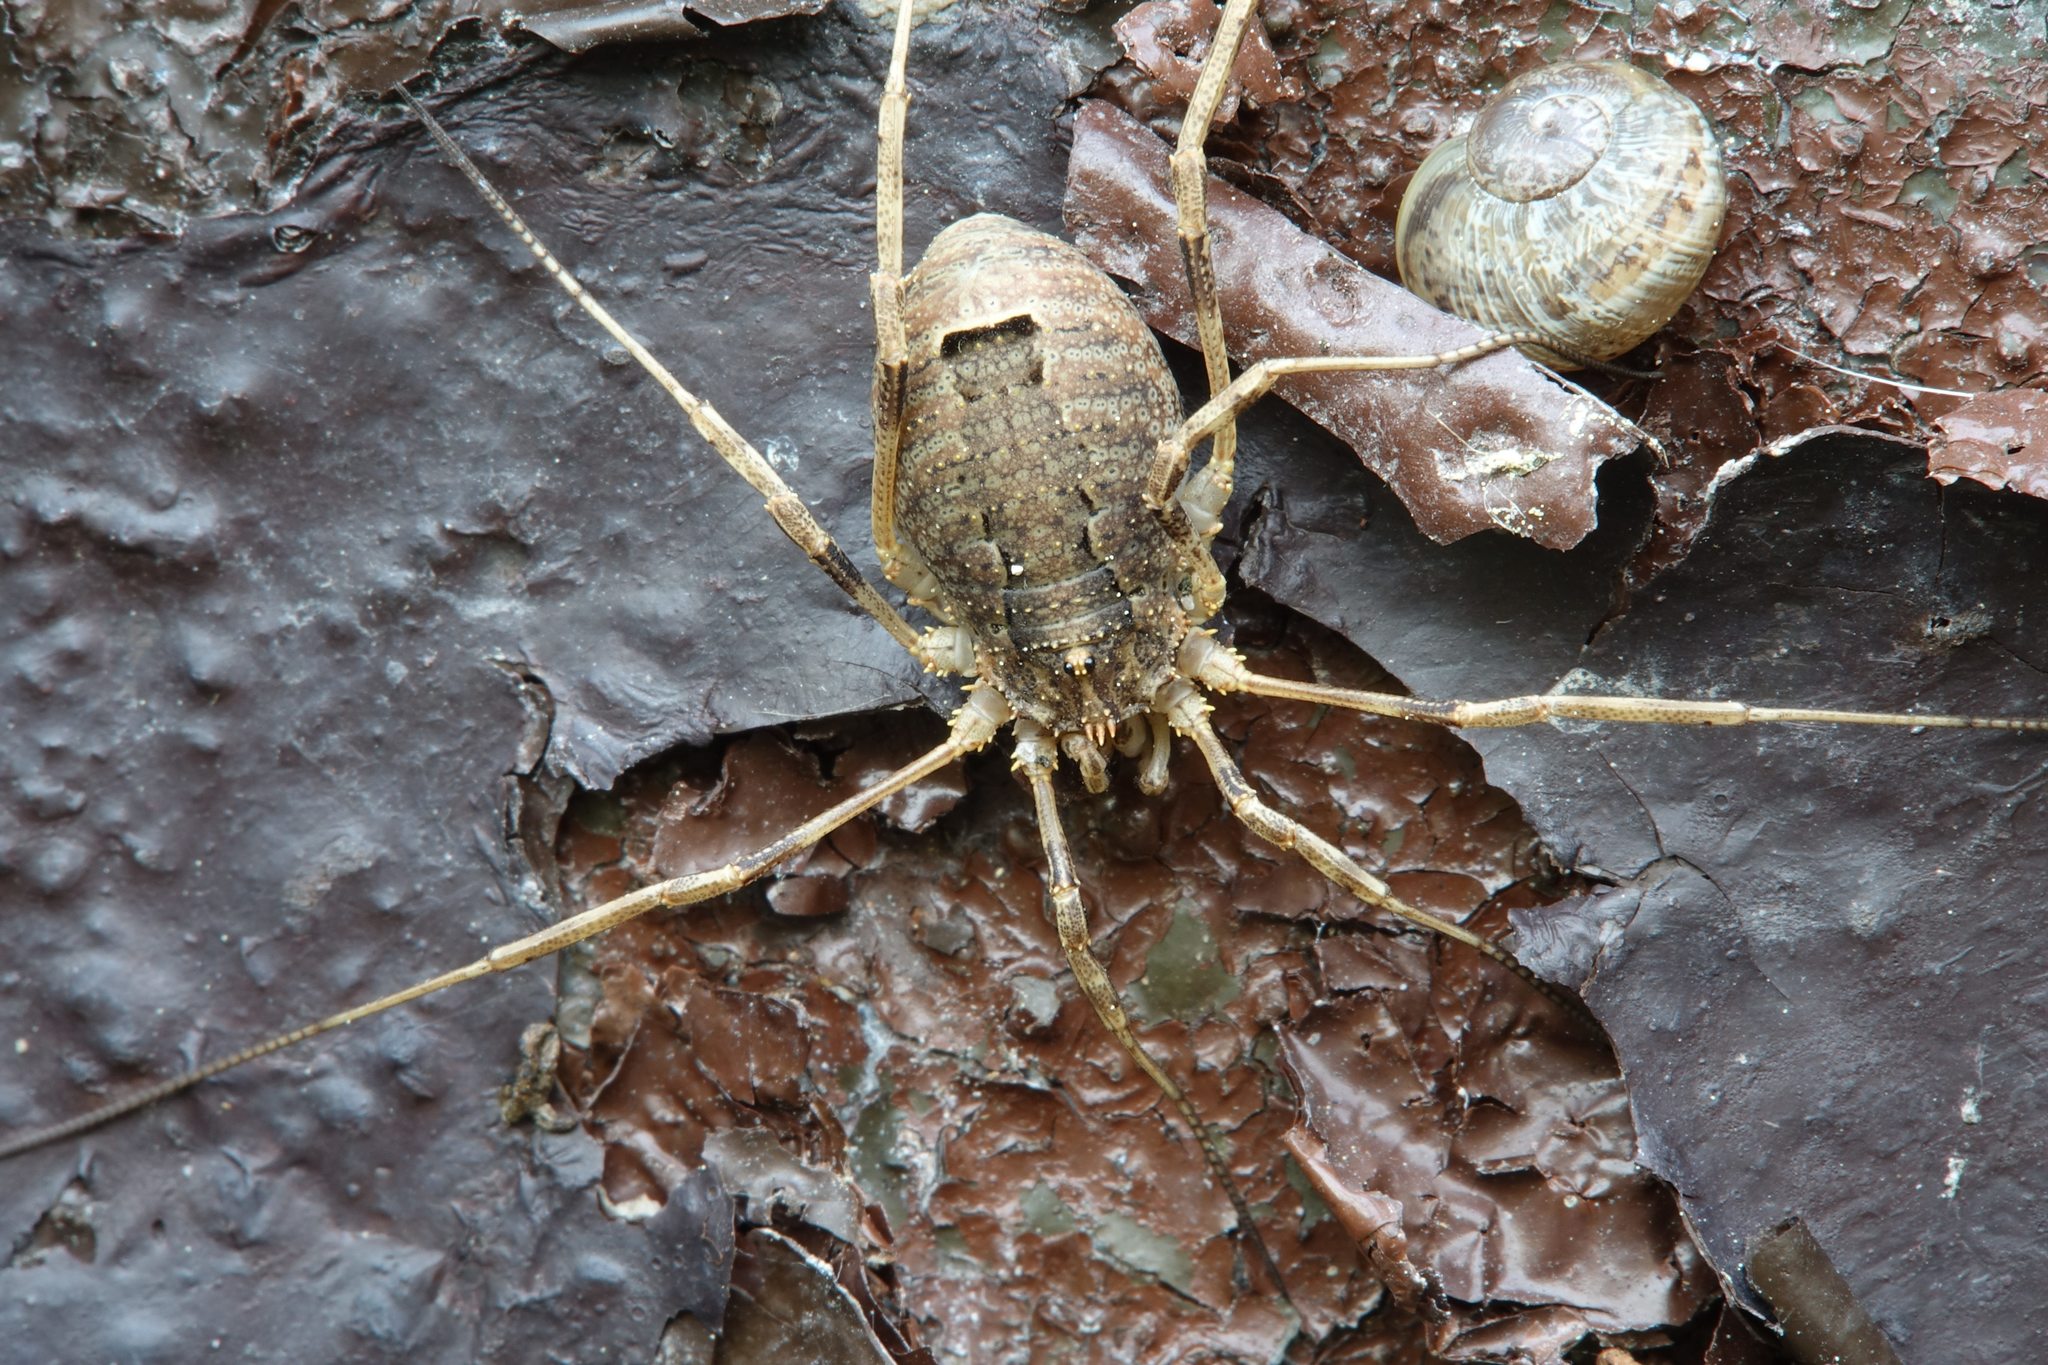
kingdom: Animalia
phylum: Arthropoda
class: Arachnida
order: Opiliones
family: Phalangiidae
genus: Odiellus
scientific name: Odiellus spinosus
